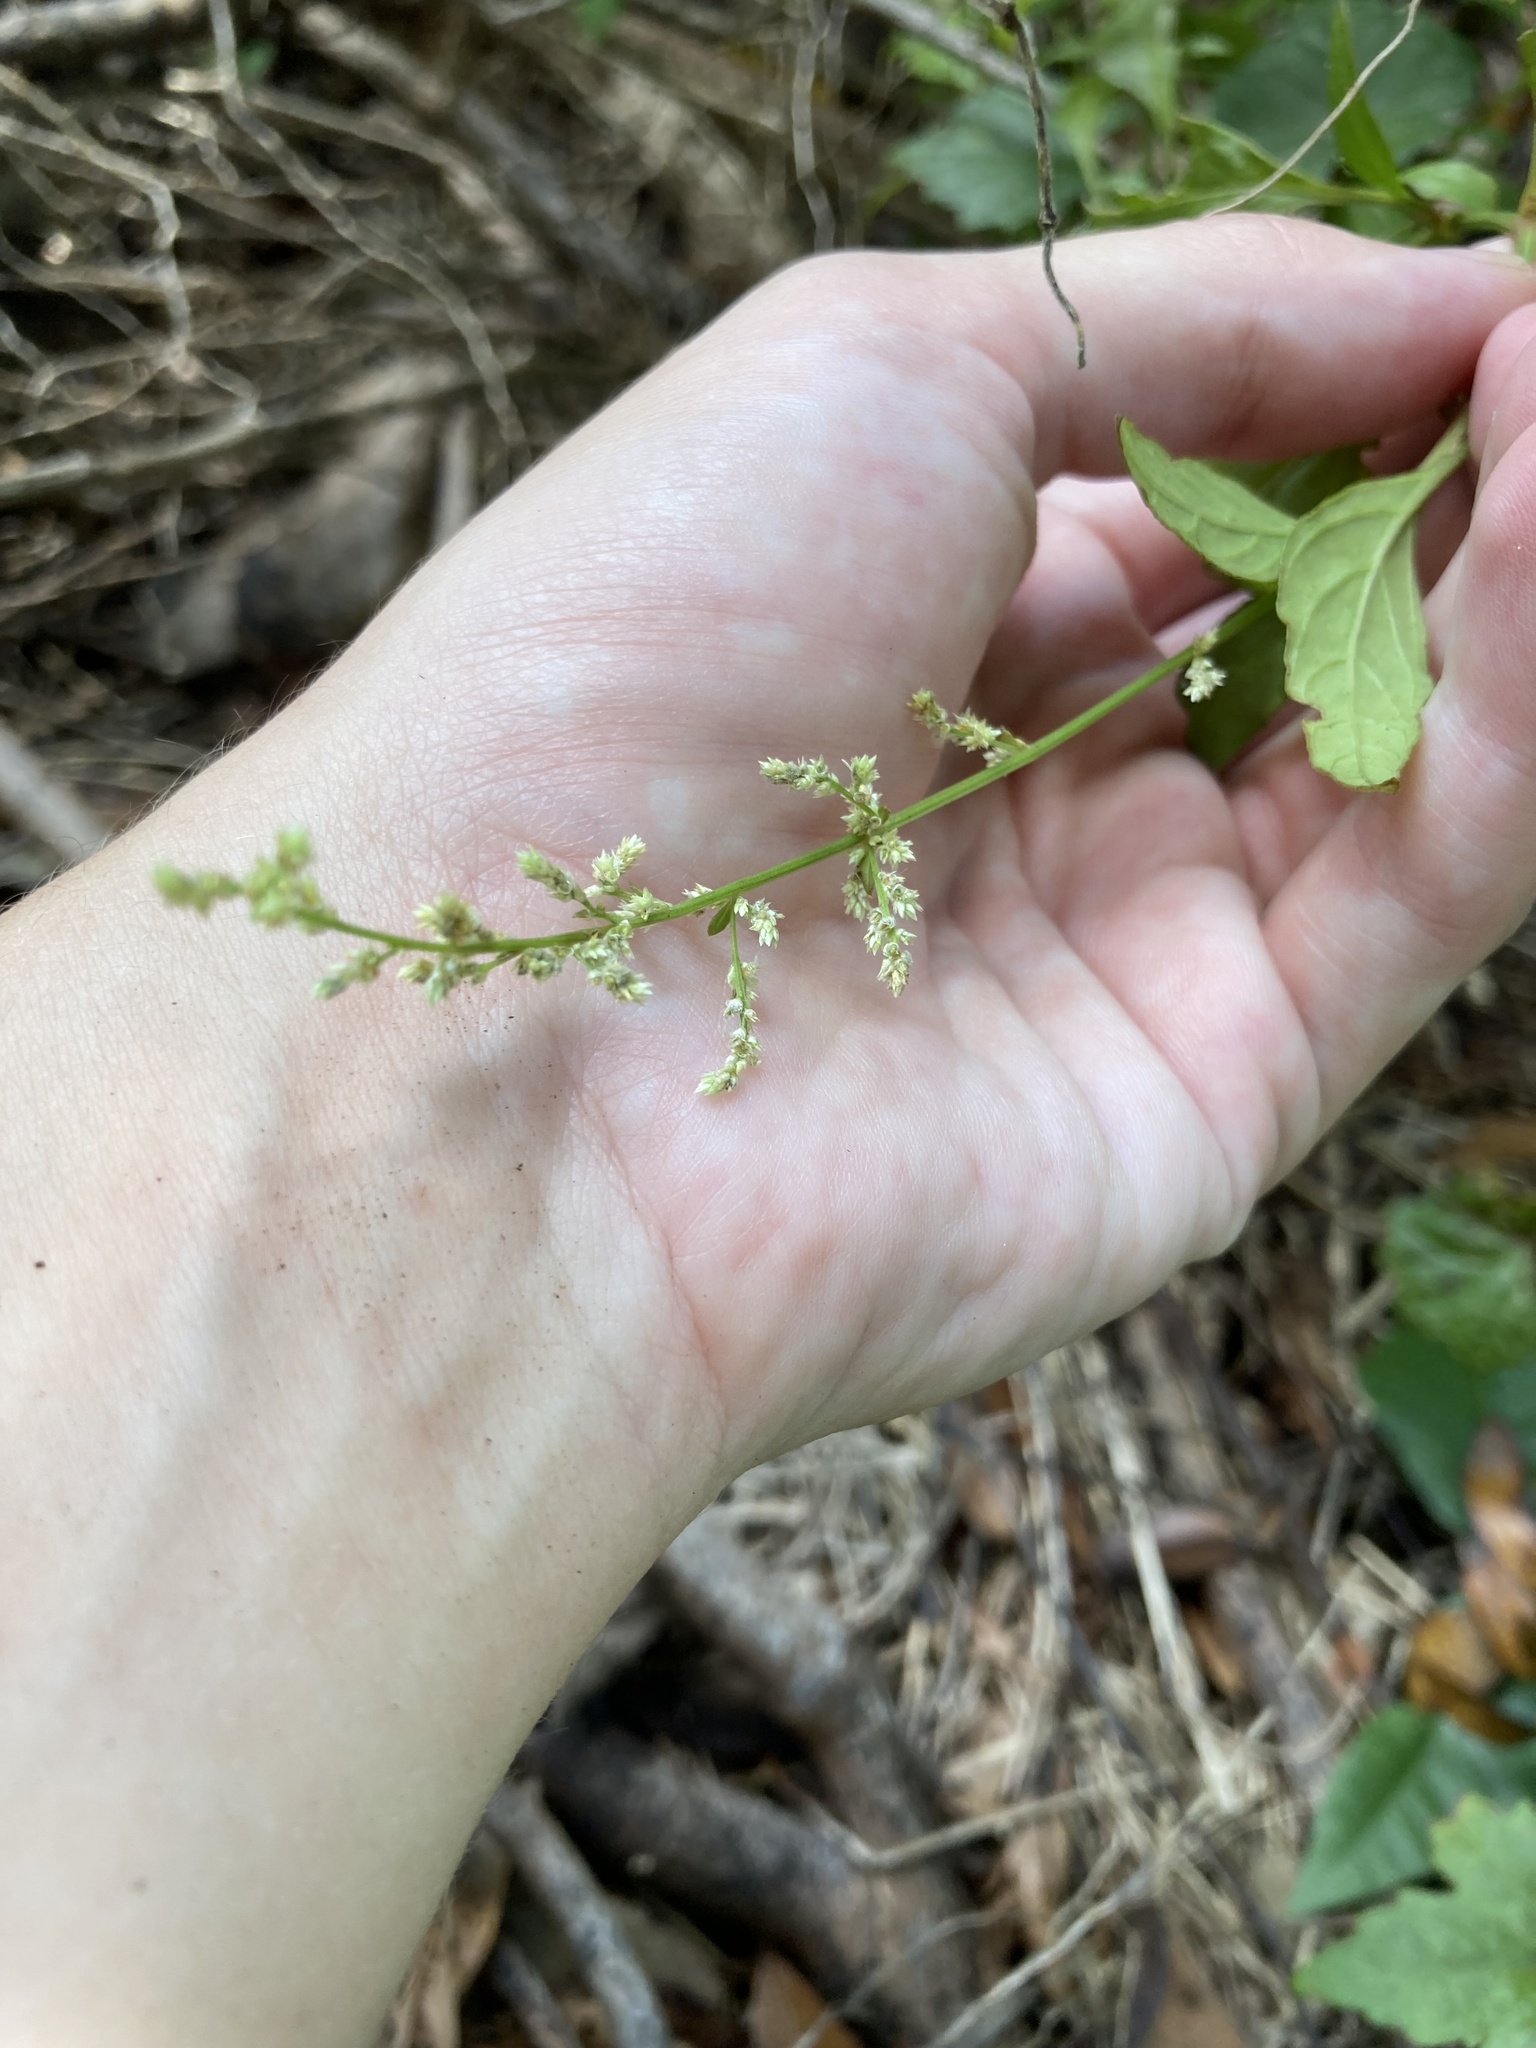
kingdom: Plantae
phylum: Tracheophyta
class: Magnoliopsida
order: Caryophyllales
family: Amaranthaceae
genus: Iresine
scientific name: Iresine diffusa
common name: Juba's-bush
